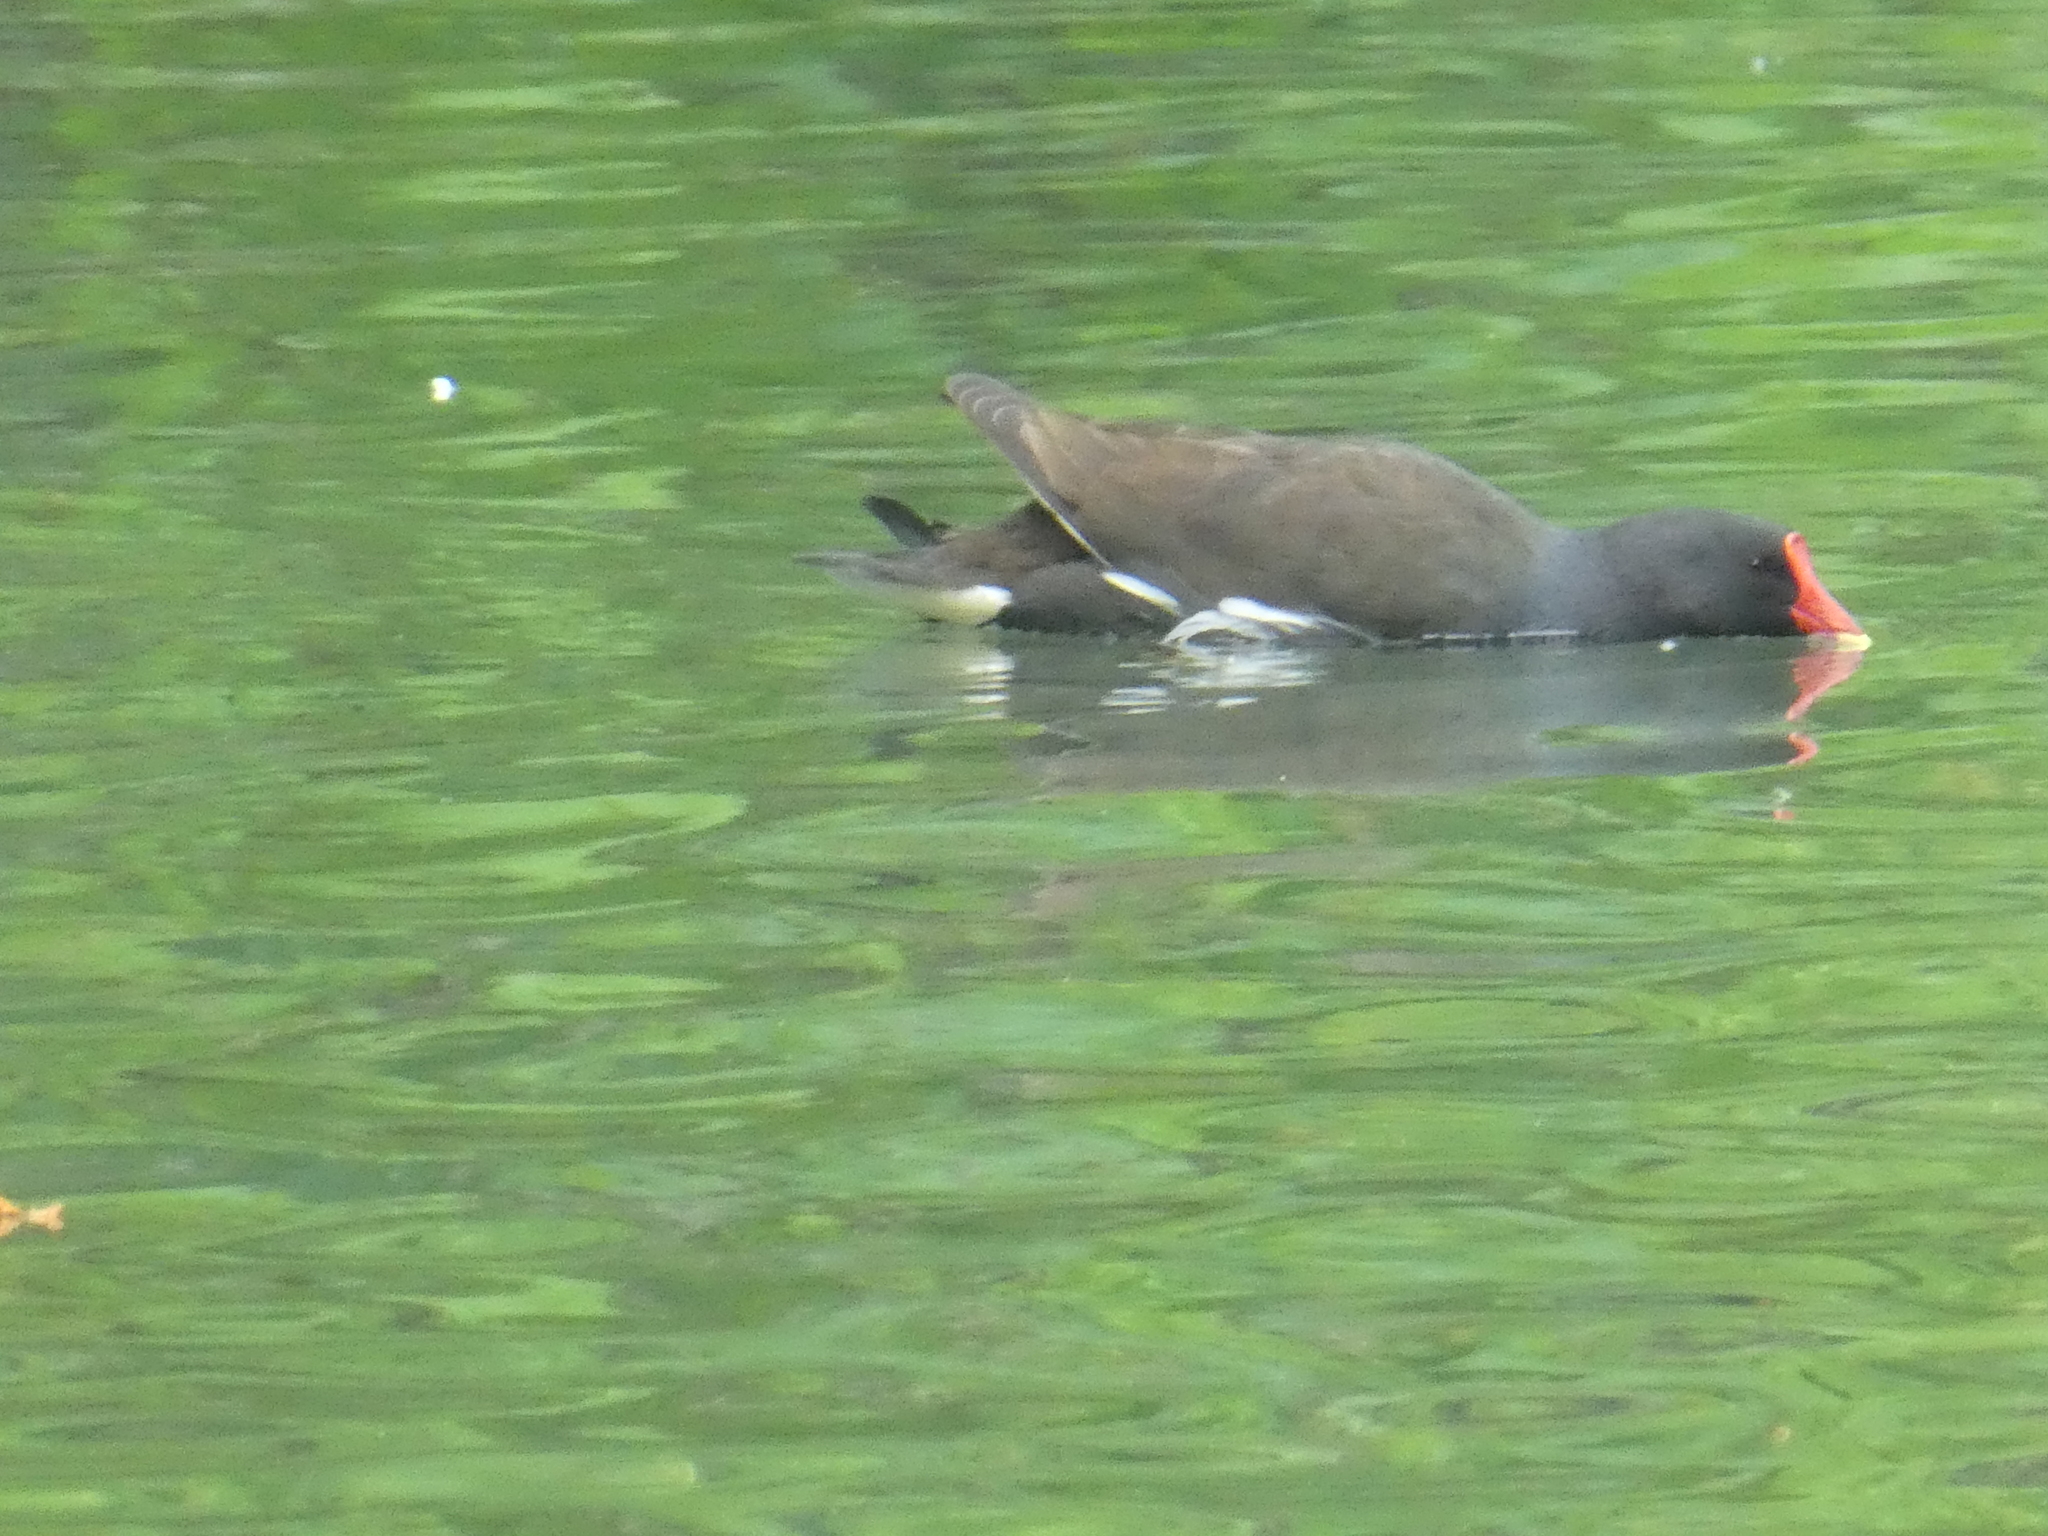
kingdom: Animalia
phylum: Chordata
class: Aves
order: Gruiformes
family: Rallidae
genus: Gallinula
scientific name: Gallinula chloropus
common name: Common moorhen
